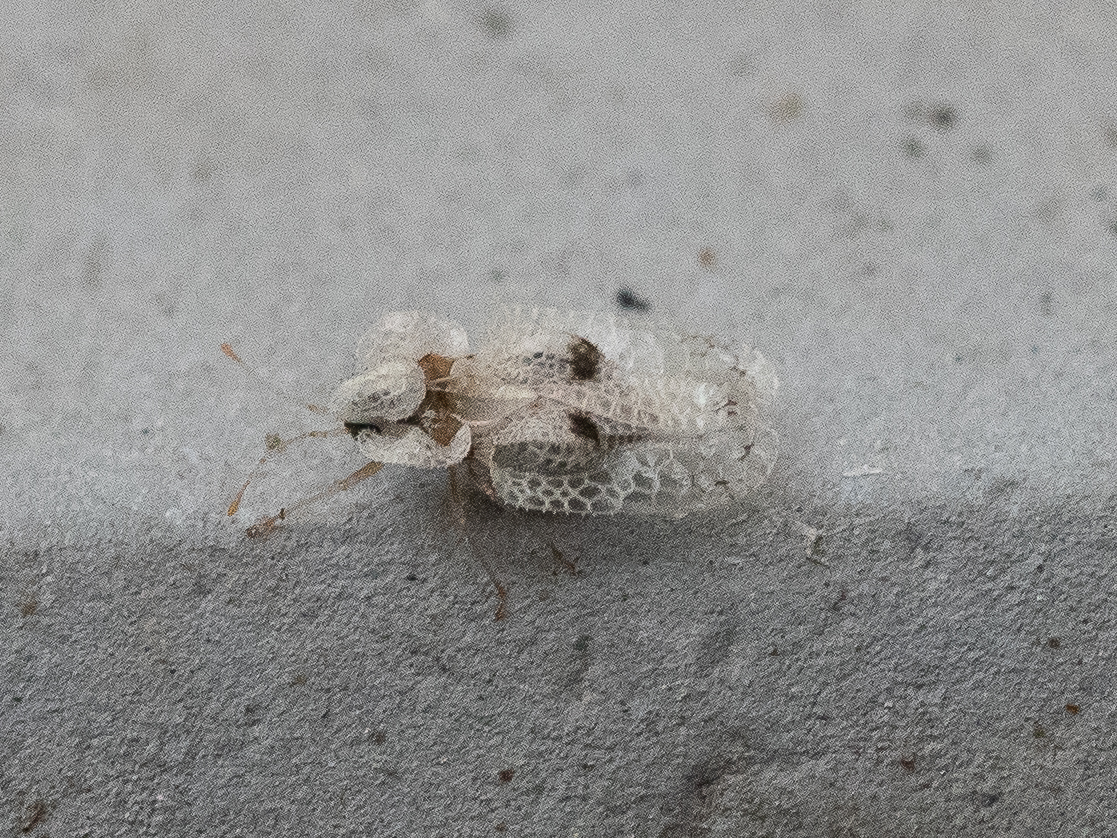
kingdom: Animalia
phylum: Arthropoda
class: Insecta
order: Hemiptera
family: Tingidae
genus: Corythucha
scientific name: Corythucha ciliata
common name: Sycamore lace bug
